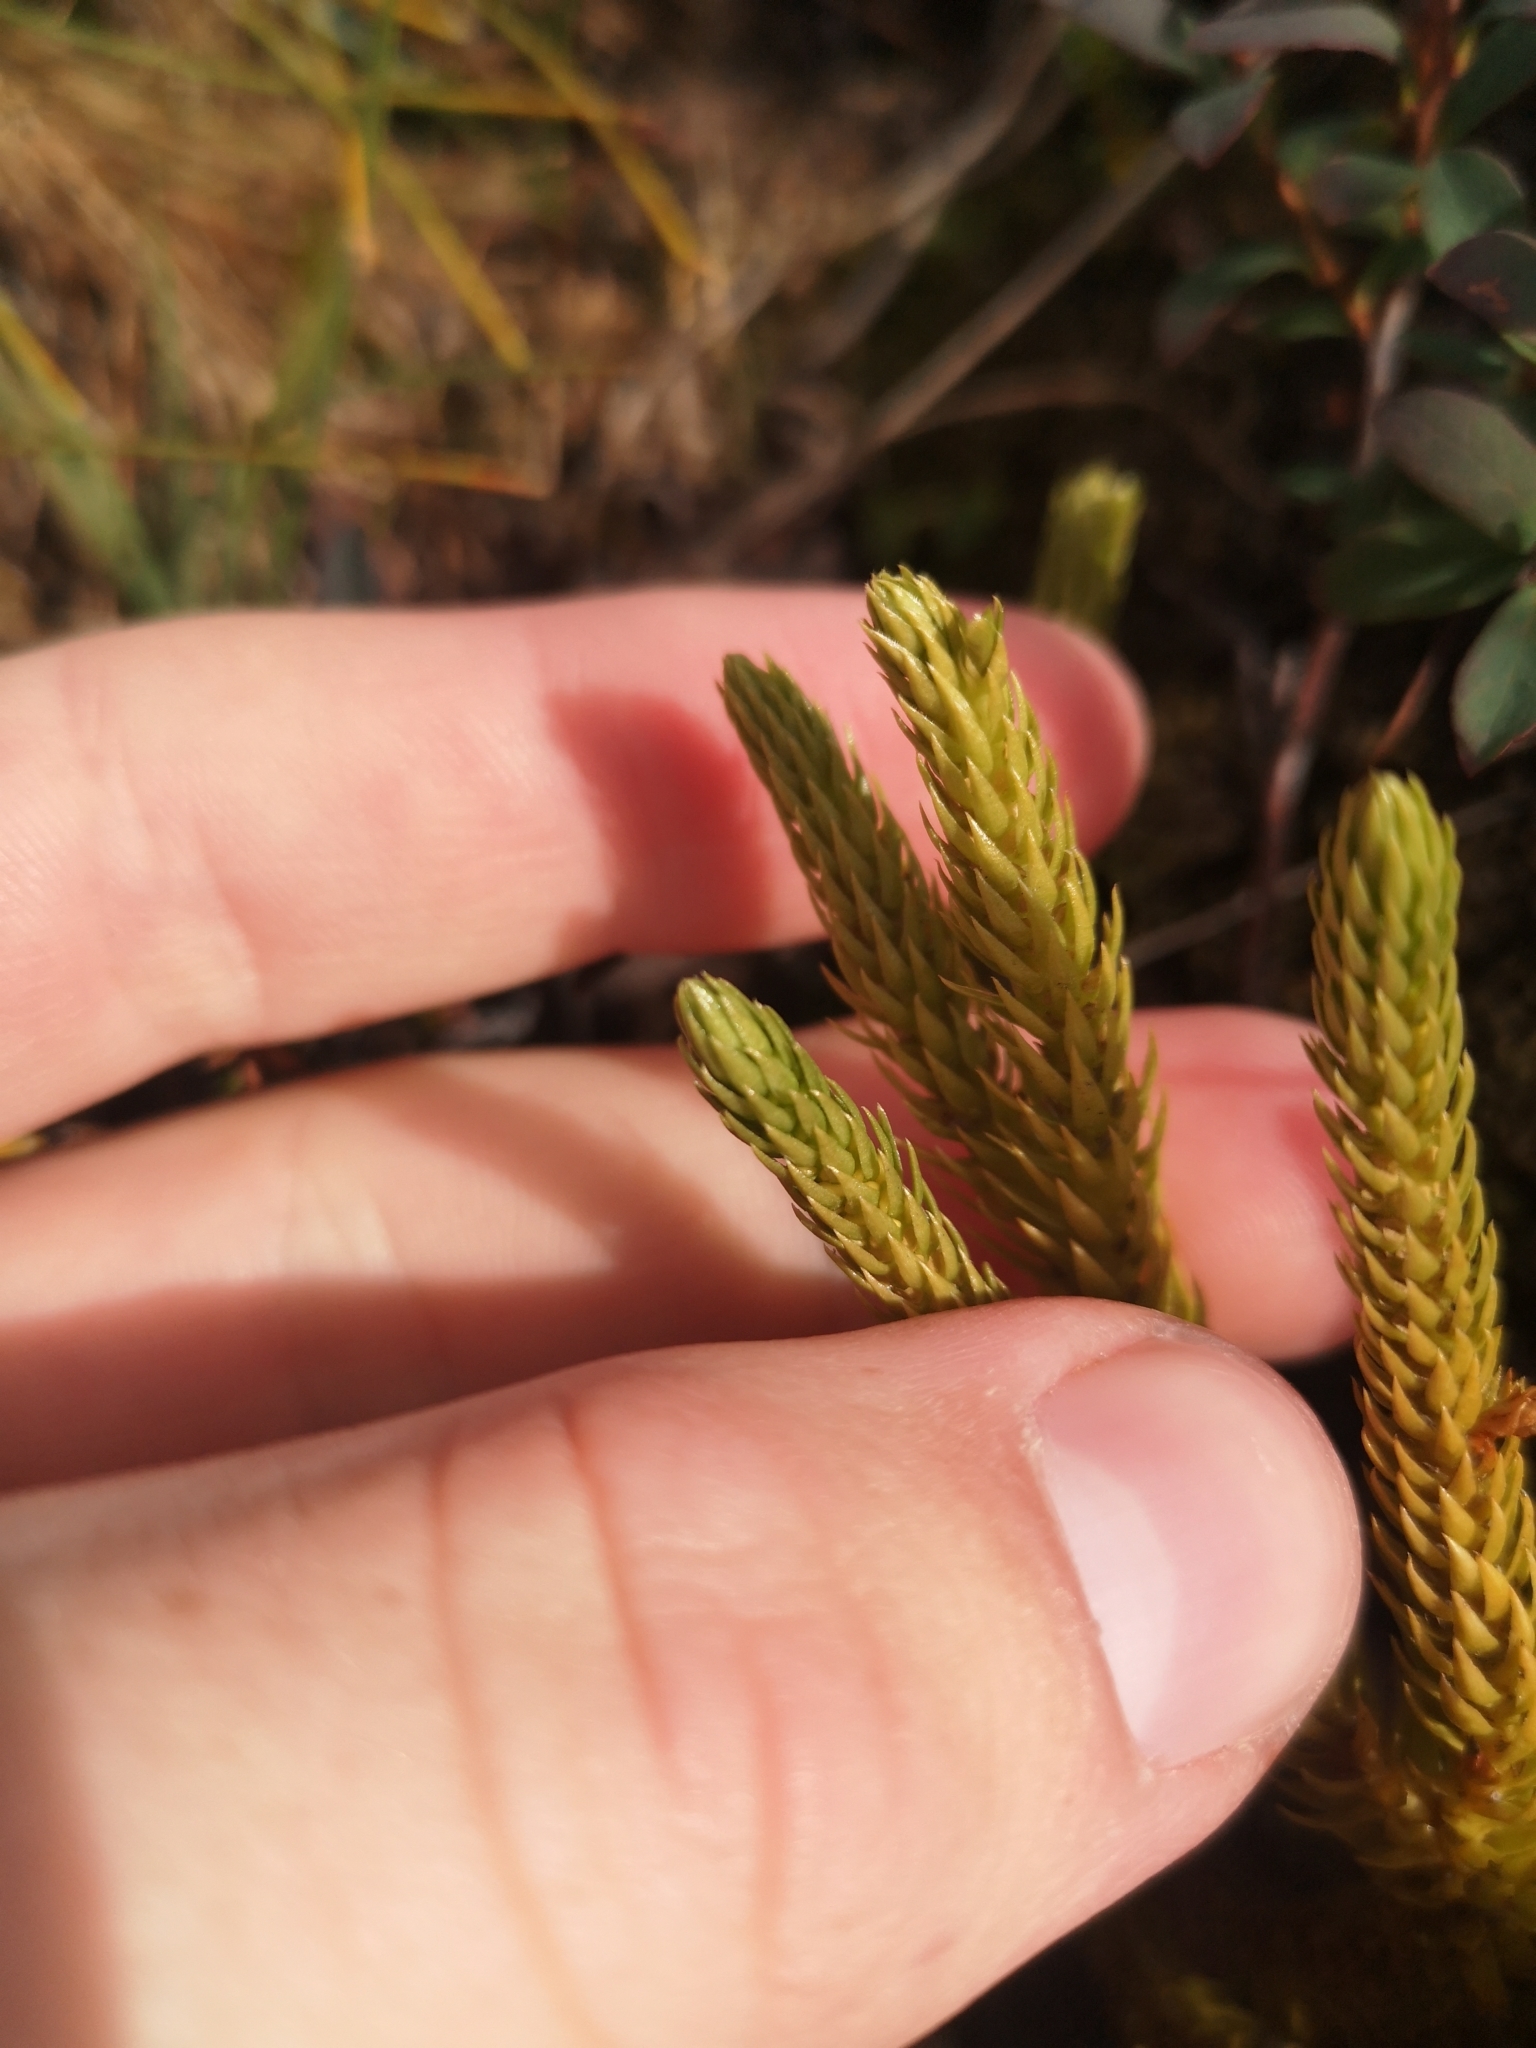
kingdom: Plantae
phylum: Tracheophyta
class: Lycopodiopsida
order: Lycopodiales
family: Lycopodiaceae
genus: Huperzia
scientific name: Huperzia selago
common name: Northern firmoss
